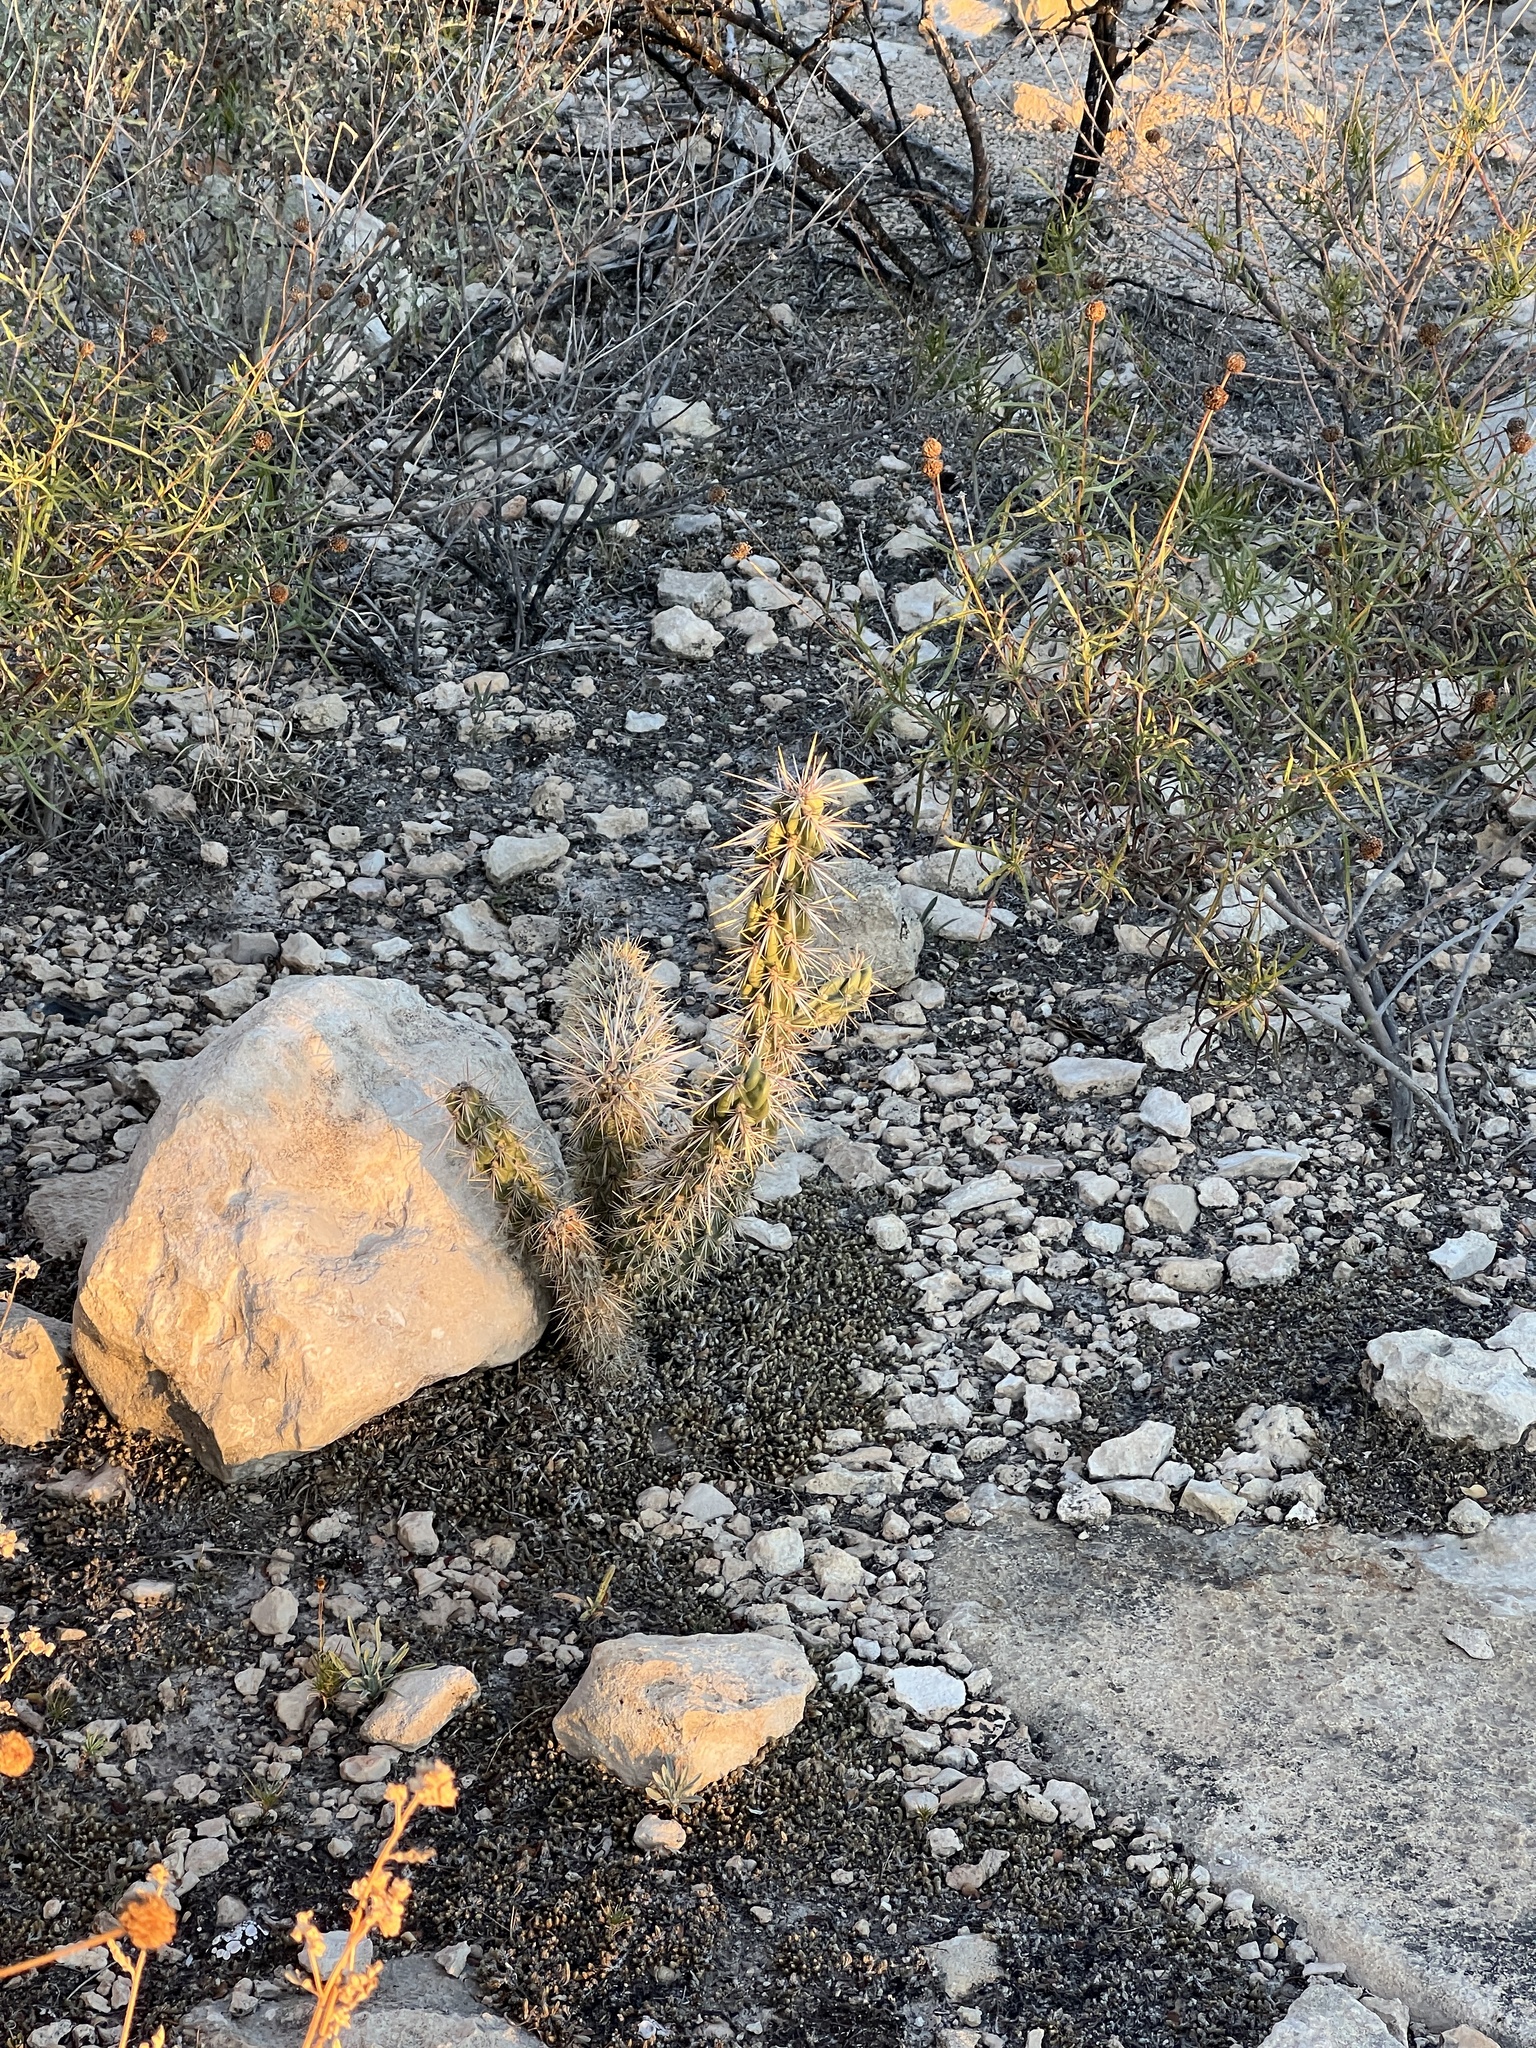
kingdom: Plantae
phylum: Tracheophyta
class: Magnoliopsida
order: Caryophyllales
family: Cactaceae
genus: Cylindropuntia
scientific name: Cylindropuntia imbricata
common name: Candelabrum cactus
